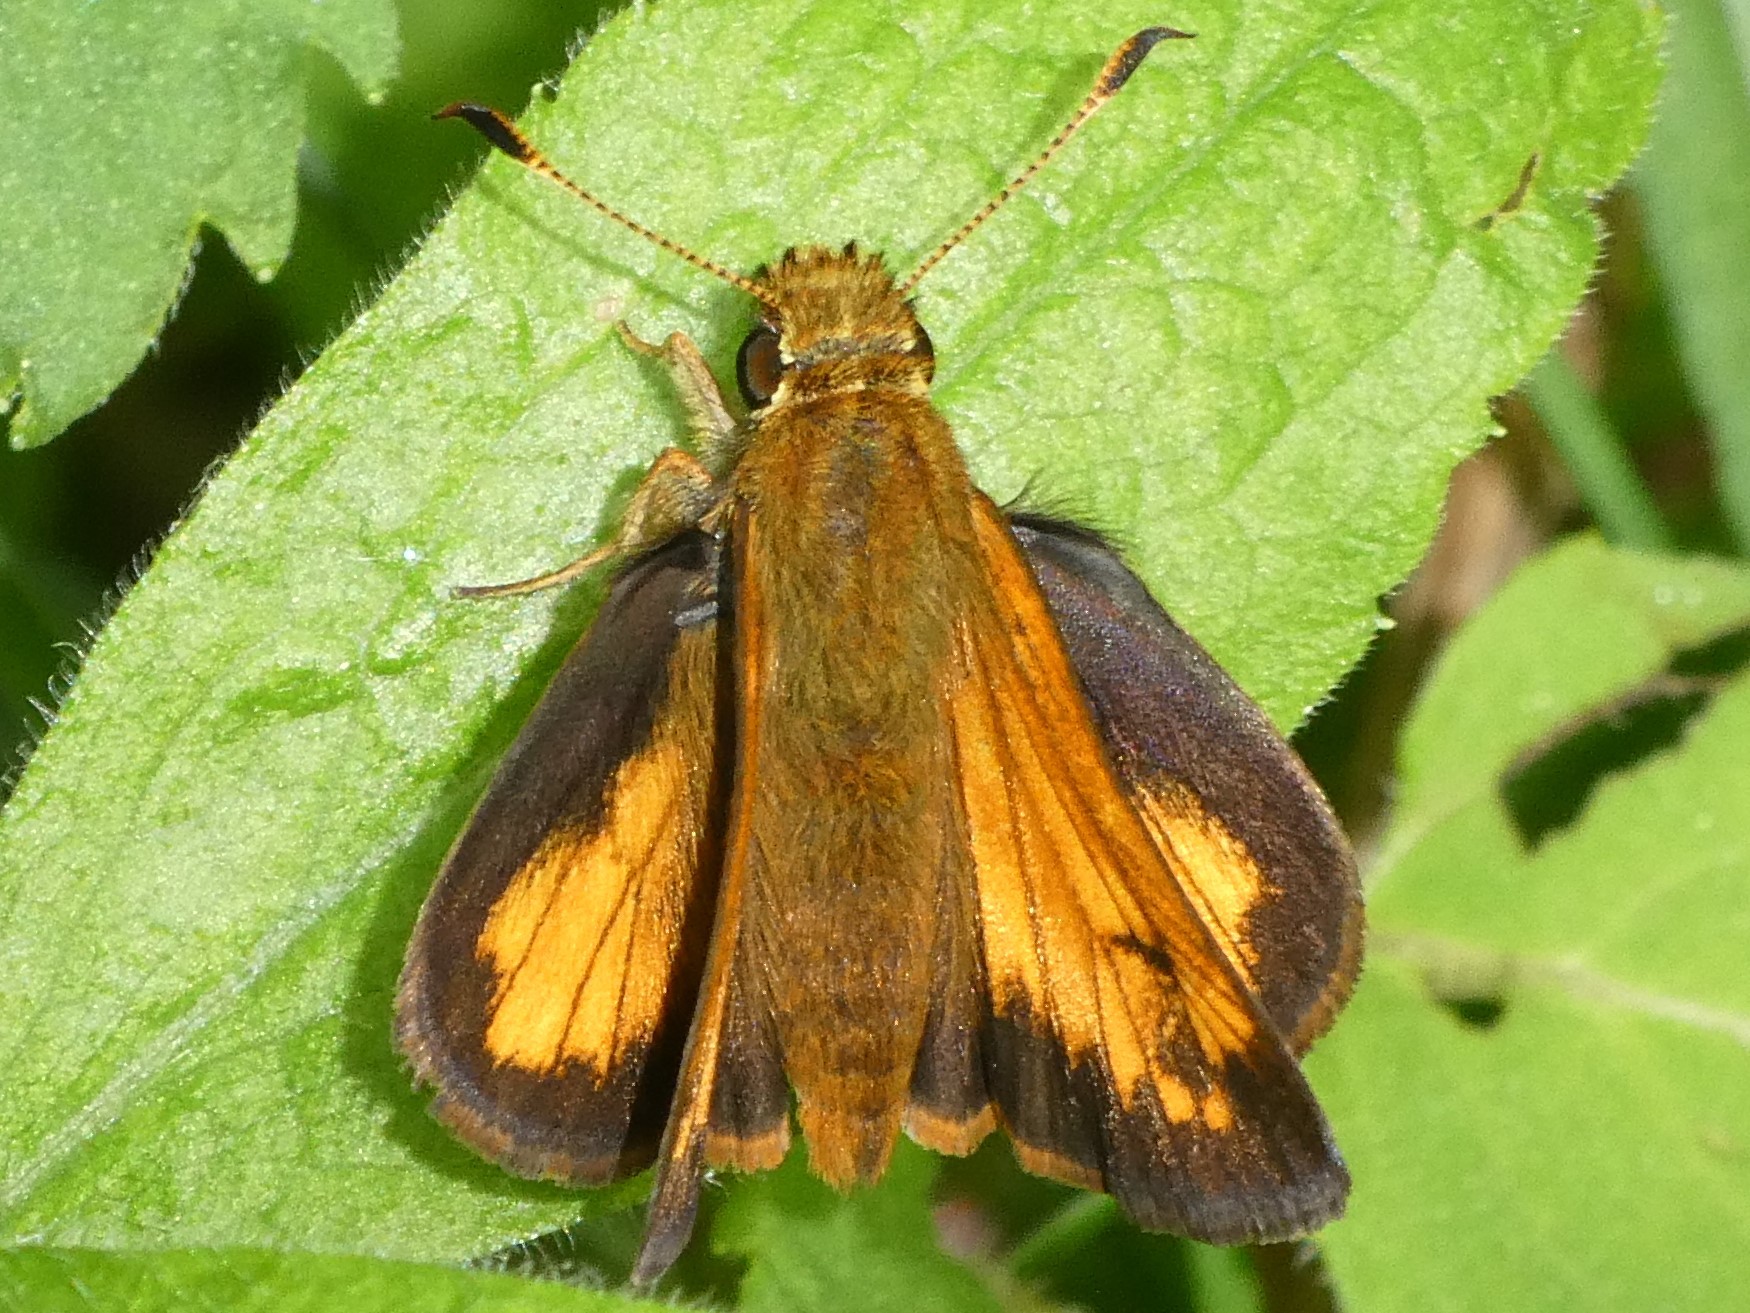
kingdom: Animalia
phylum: Arthropoda
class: Insecta
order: Lepidoptera
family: Hesperiidae
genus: Lon
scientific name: Lon hobomok
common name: Hobomok skipper
